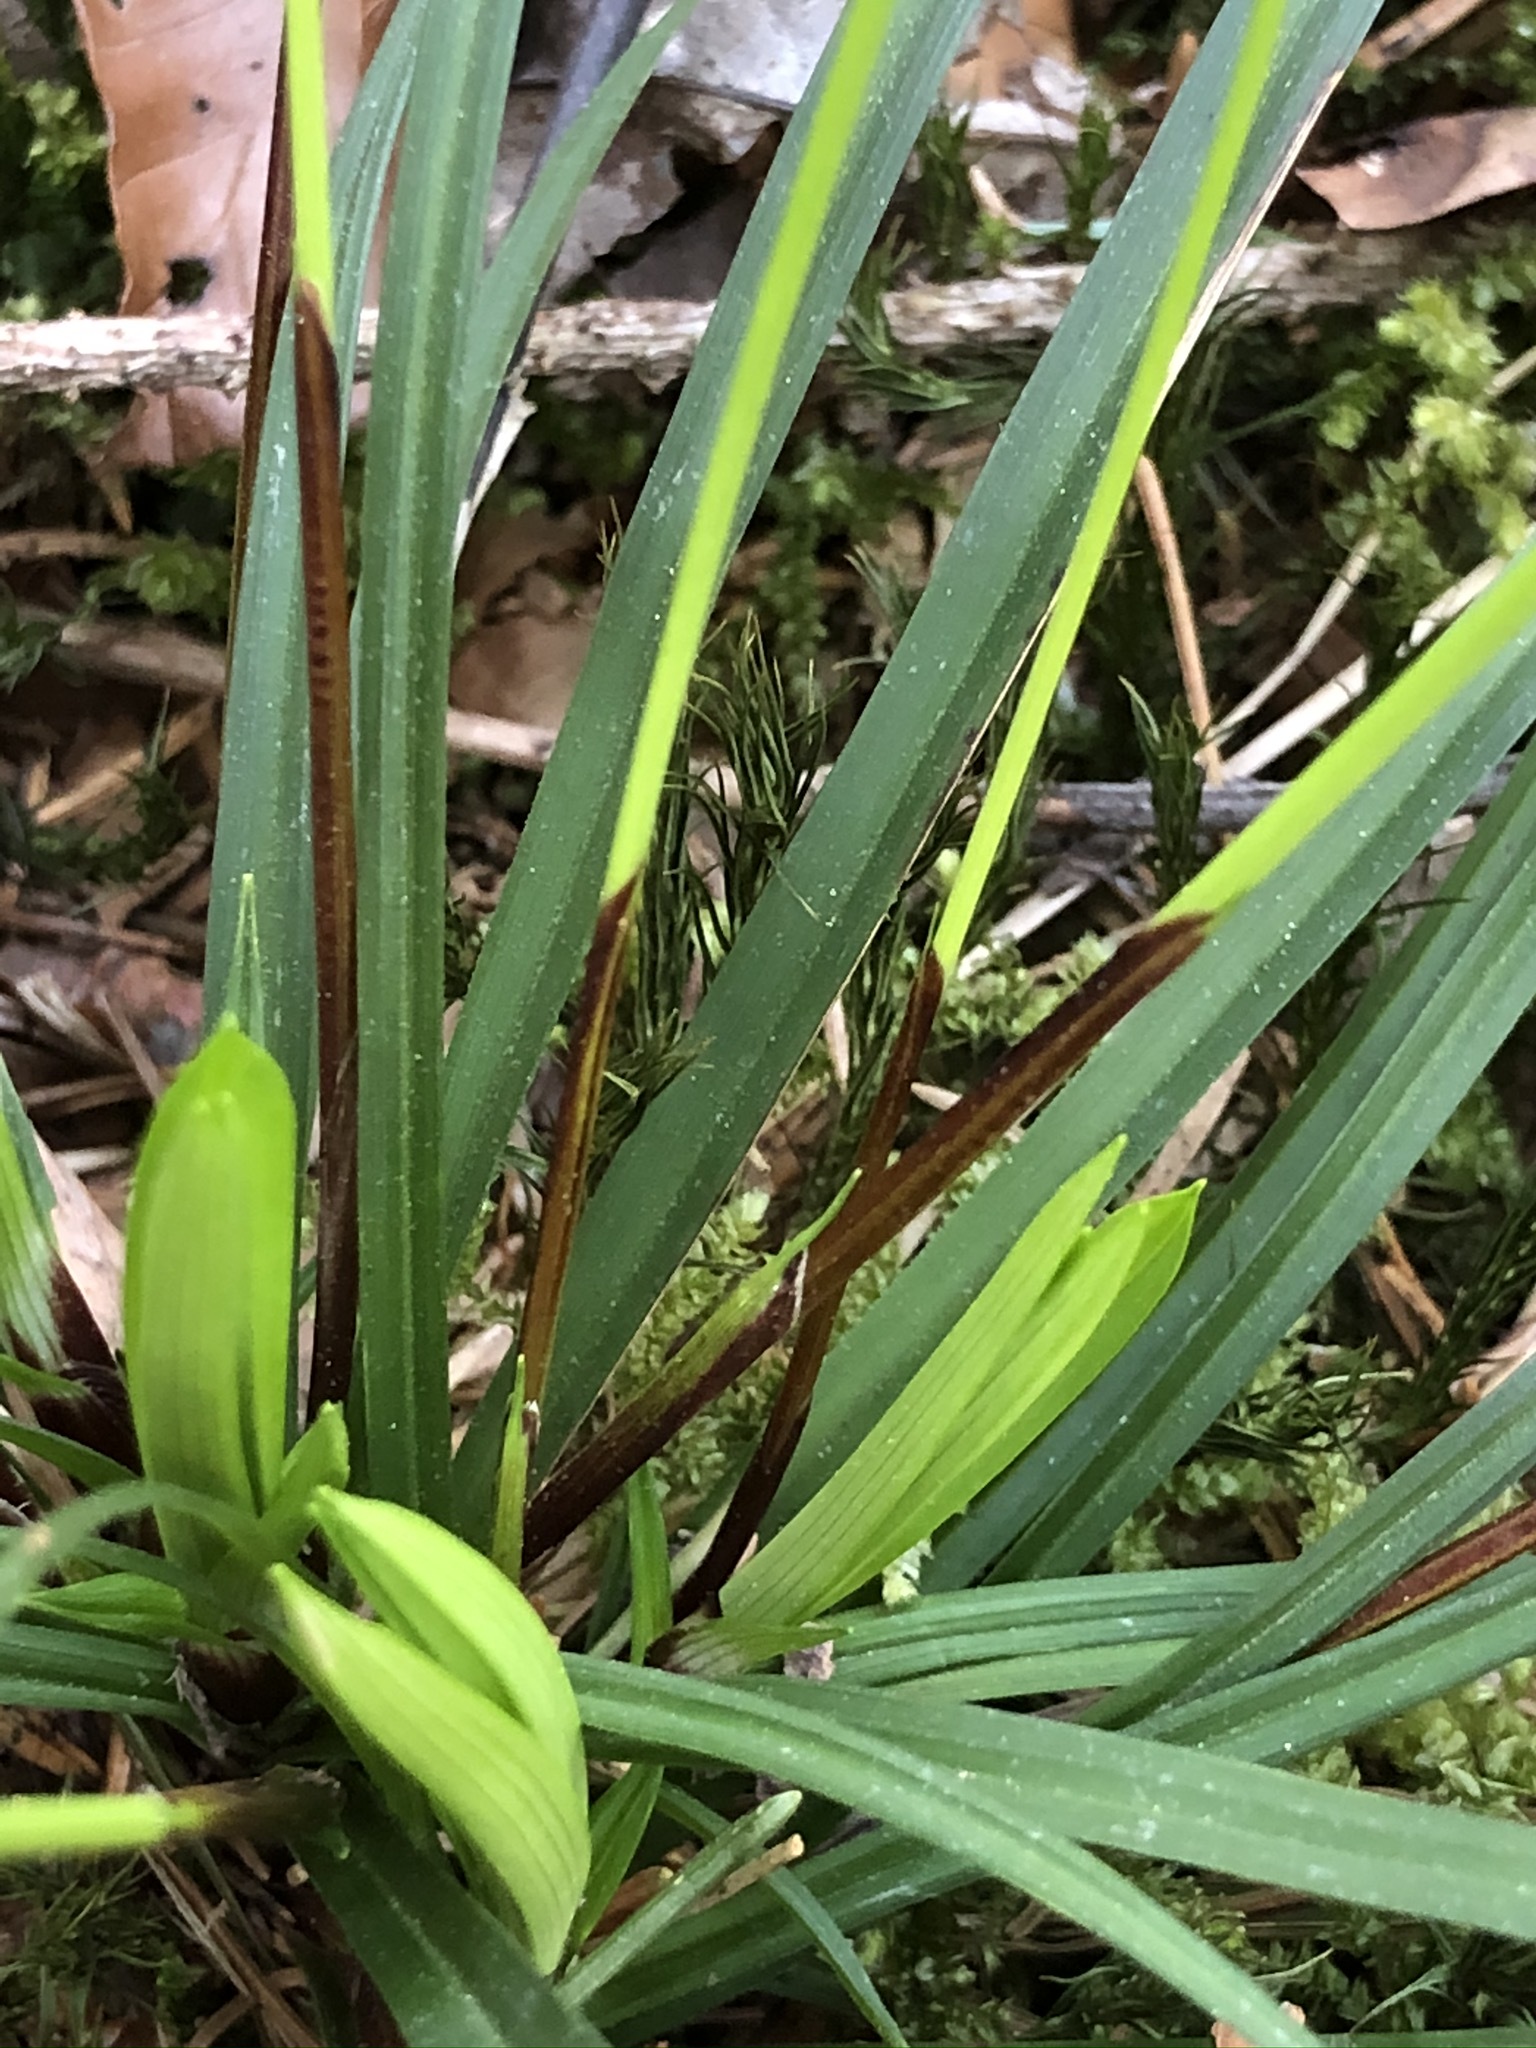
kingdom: Plantae
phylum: Tracheophyta
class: Liliopsida
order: Poales
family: Cyperaceae
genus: Carex
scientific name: Carex digitata
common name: Fingered sedge
